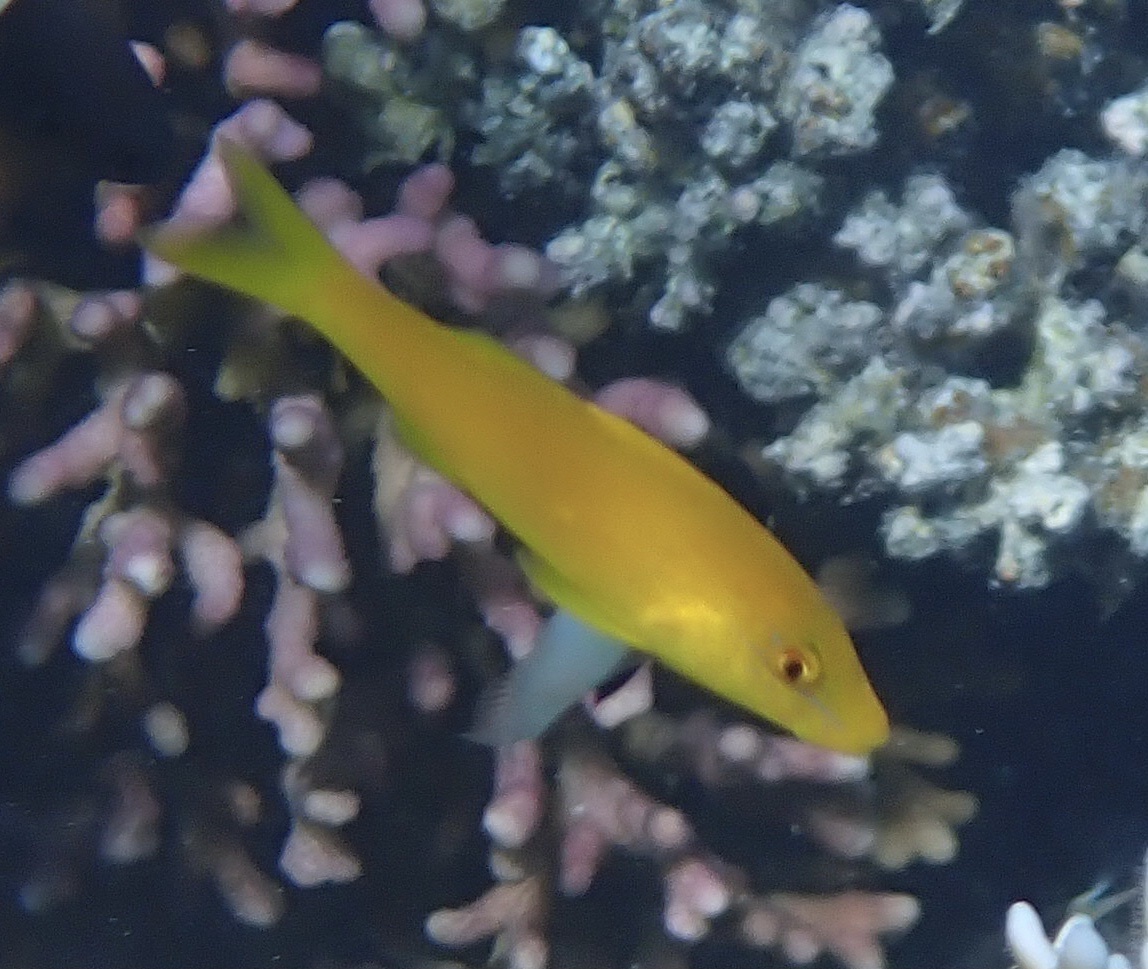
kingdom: Animalia
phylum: Chordata
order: Perciformes
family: Mullidae
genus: Parupeneus
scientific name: Parupeneus cyclostomus
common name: Goldsaddle goatfish
